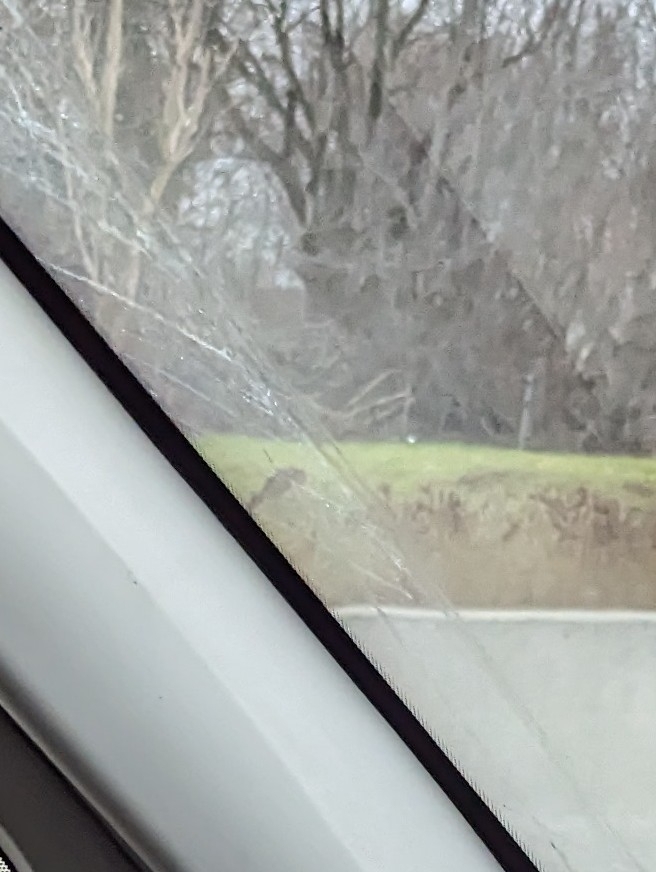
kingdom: Animalia
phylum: Chordata
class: Mammalia
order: Artiodactyla
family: Cervidae
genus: Odocoileus
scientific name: Odocoileus virginianus
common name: White-tailed deer
